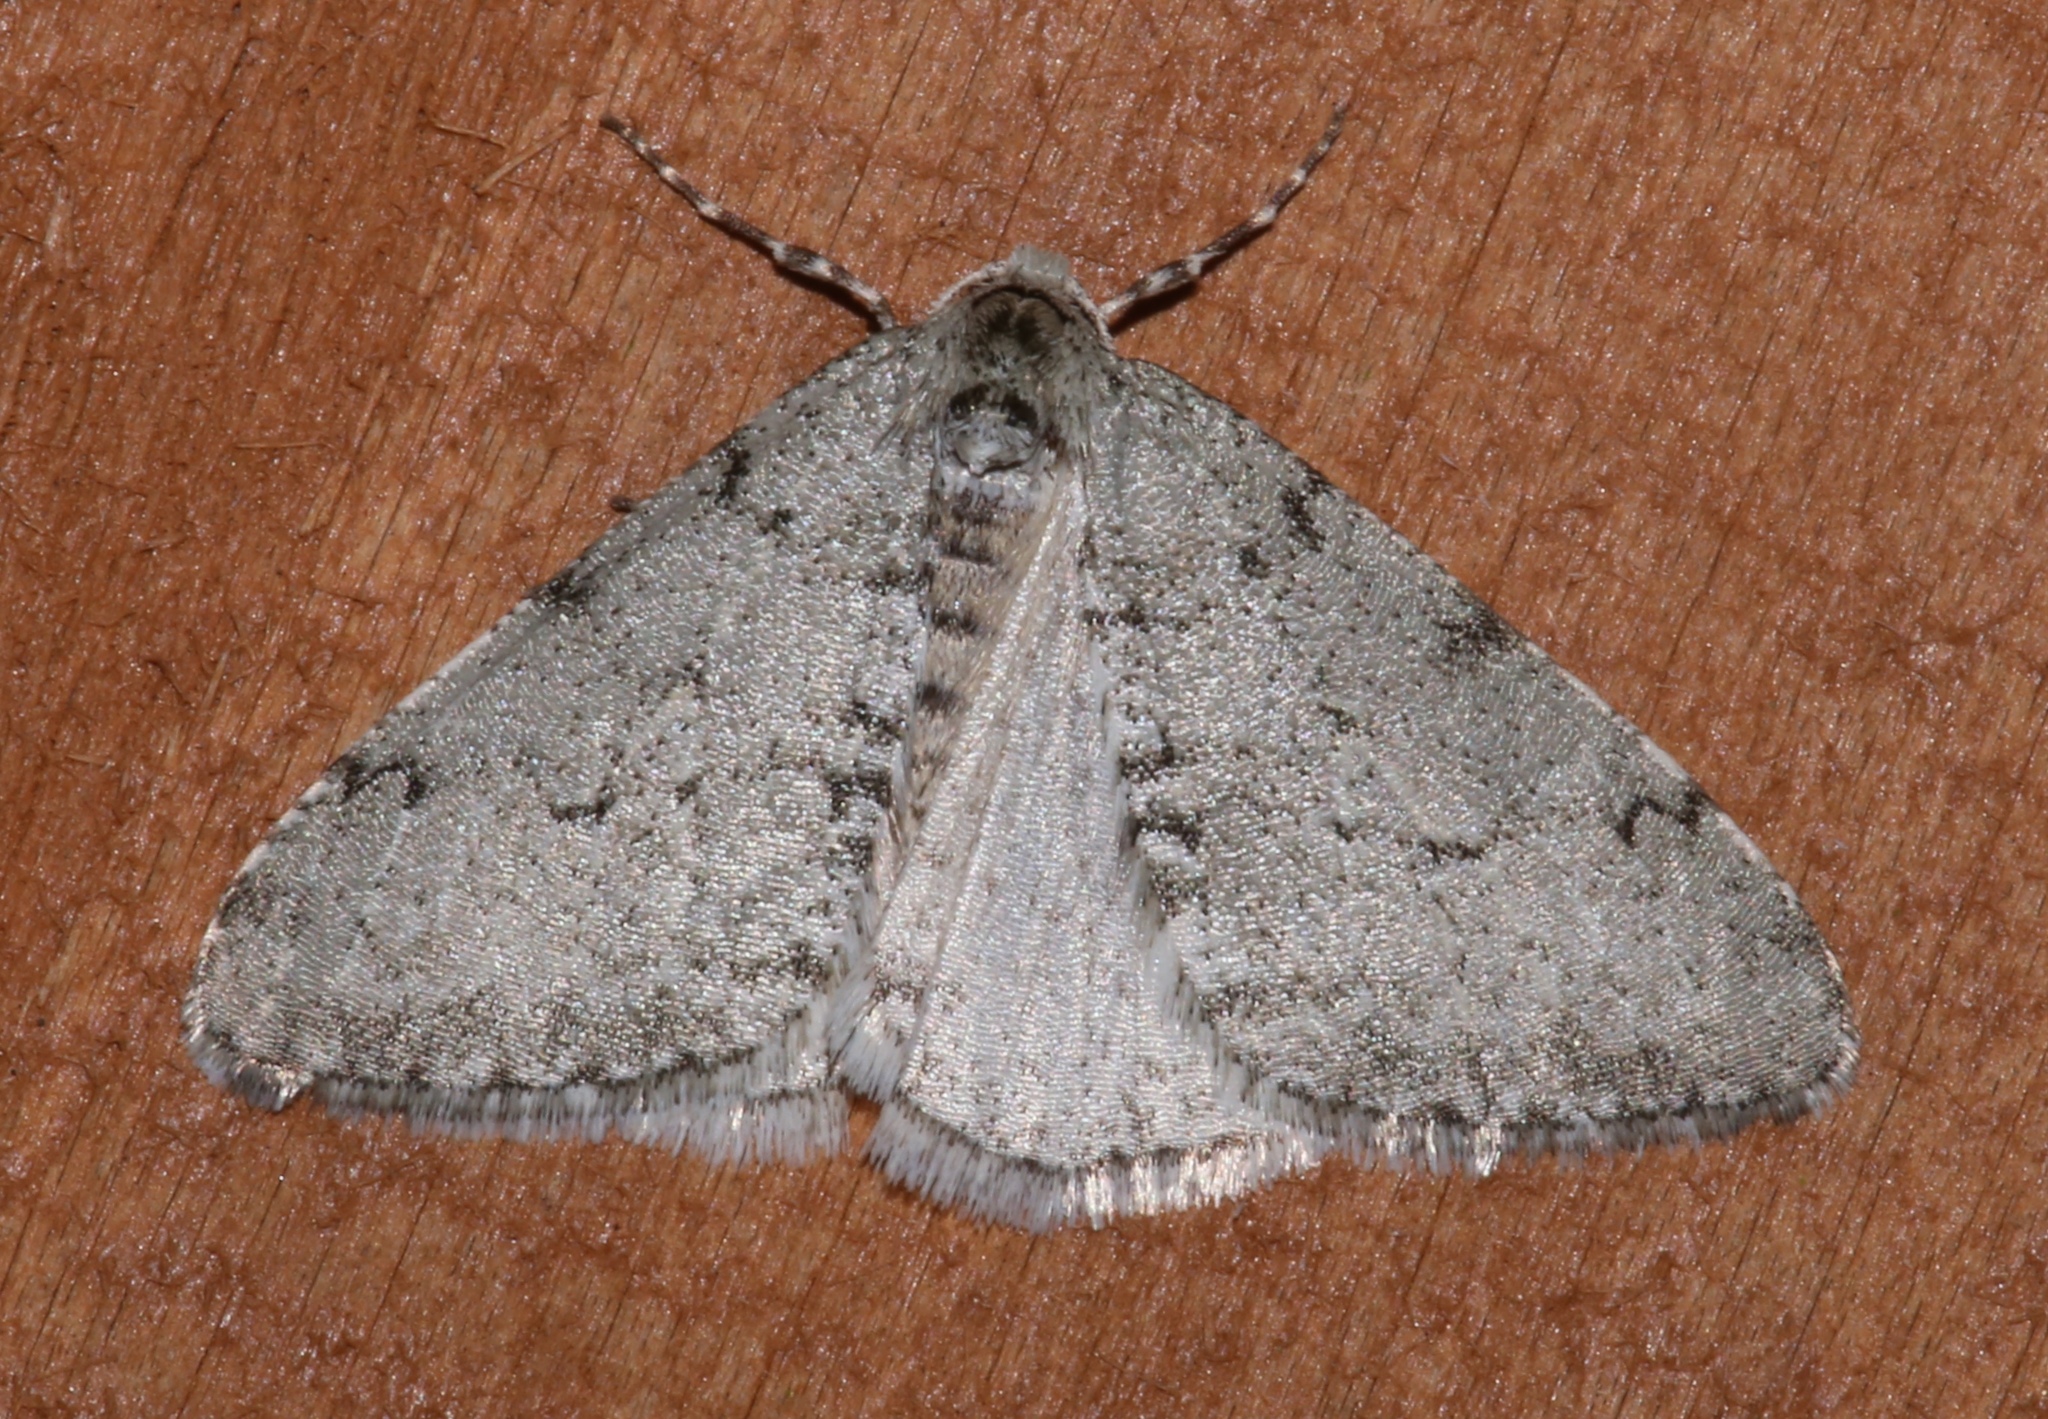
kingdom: Animalia
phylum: Arthropoda
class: Insecta
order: Lepidoptera
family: Geometridae
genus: Phigalia
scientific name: Phigalia strigataria
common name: Small phigalia
